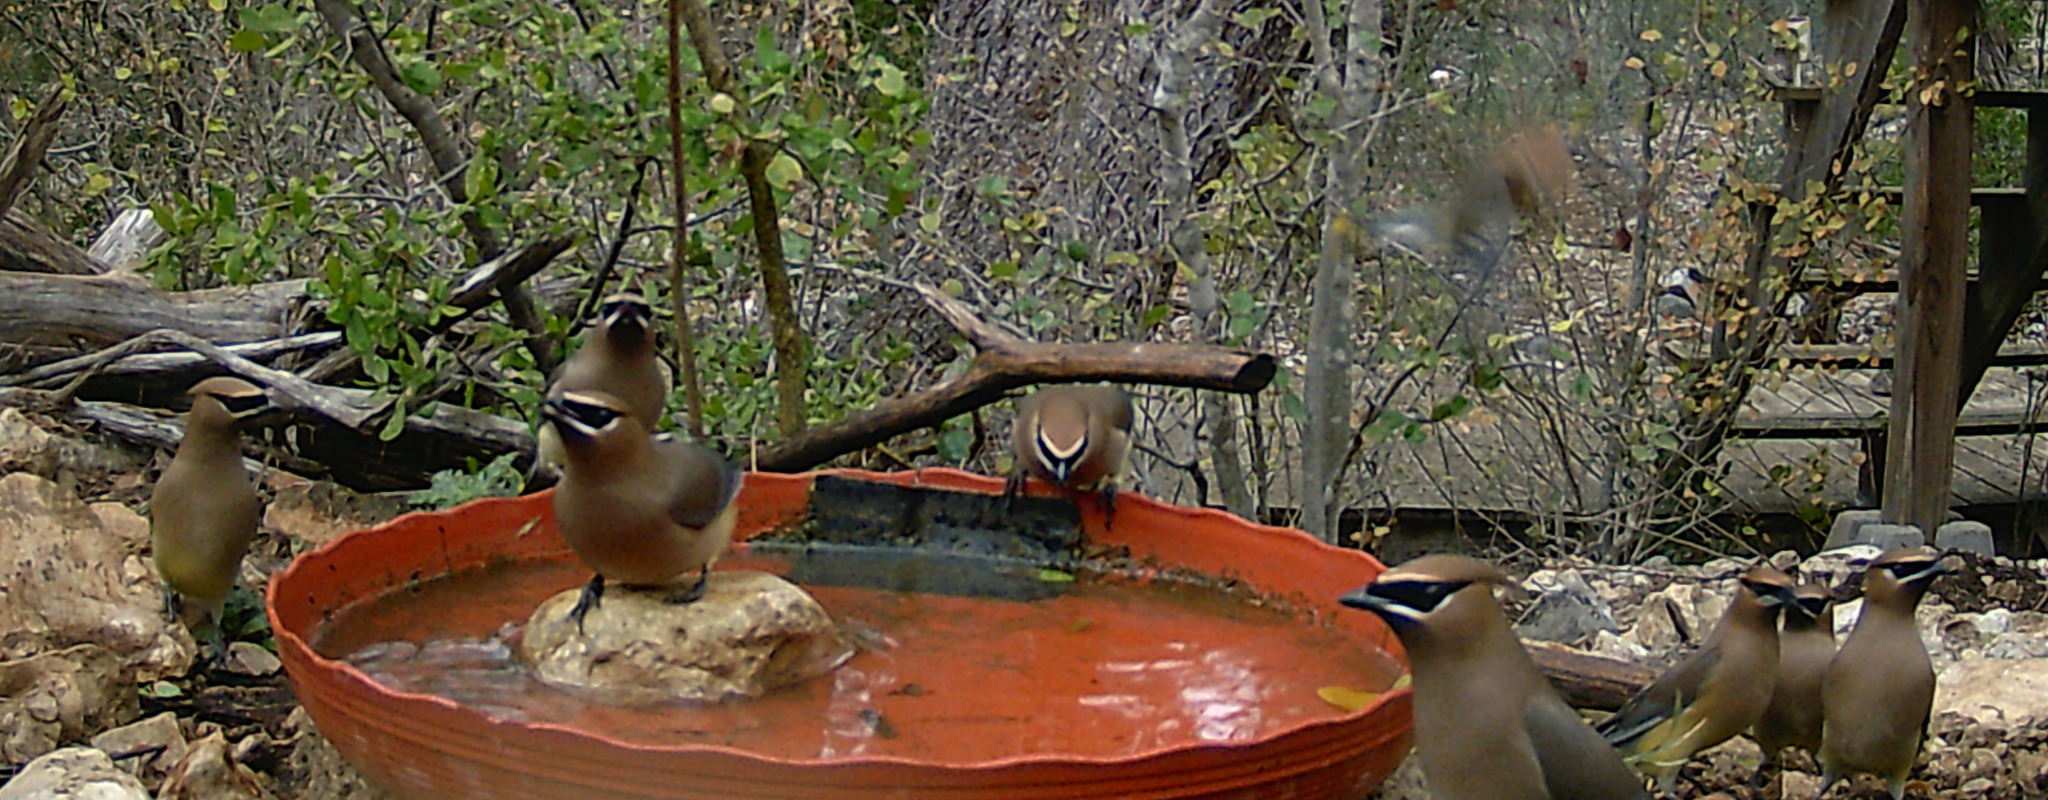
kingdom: Animalia
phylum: Chordata
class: Aves
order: Passeriformes
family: Bombycillidae
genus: Bombycilla
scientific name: Bombycilla cedrorum
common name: Cedar waxwing
